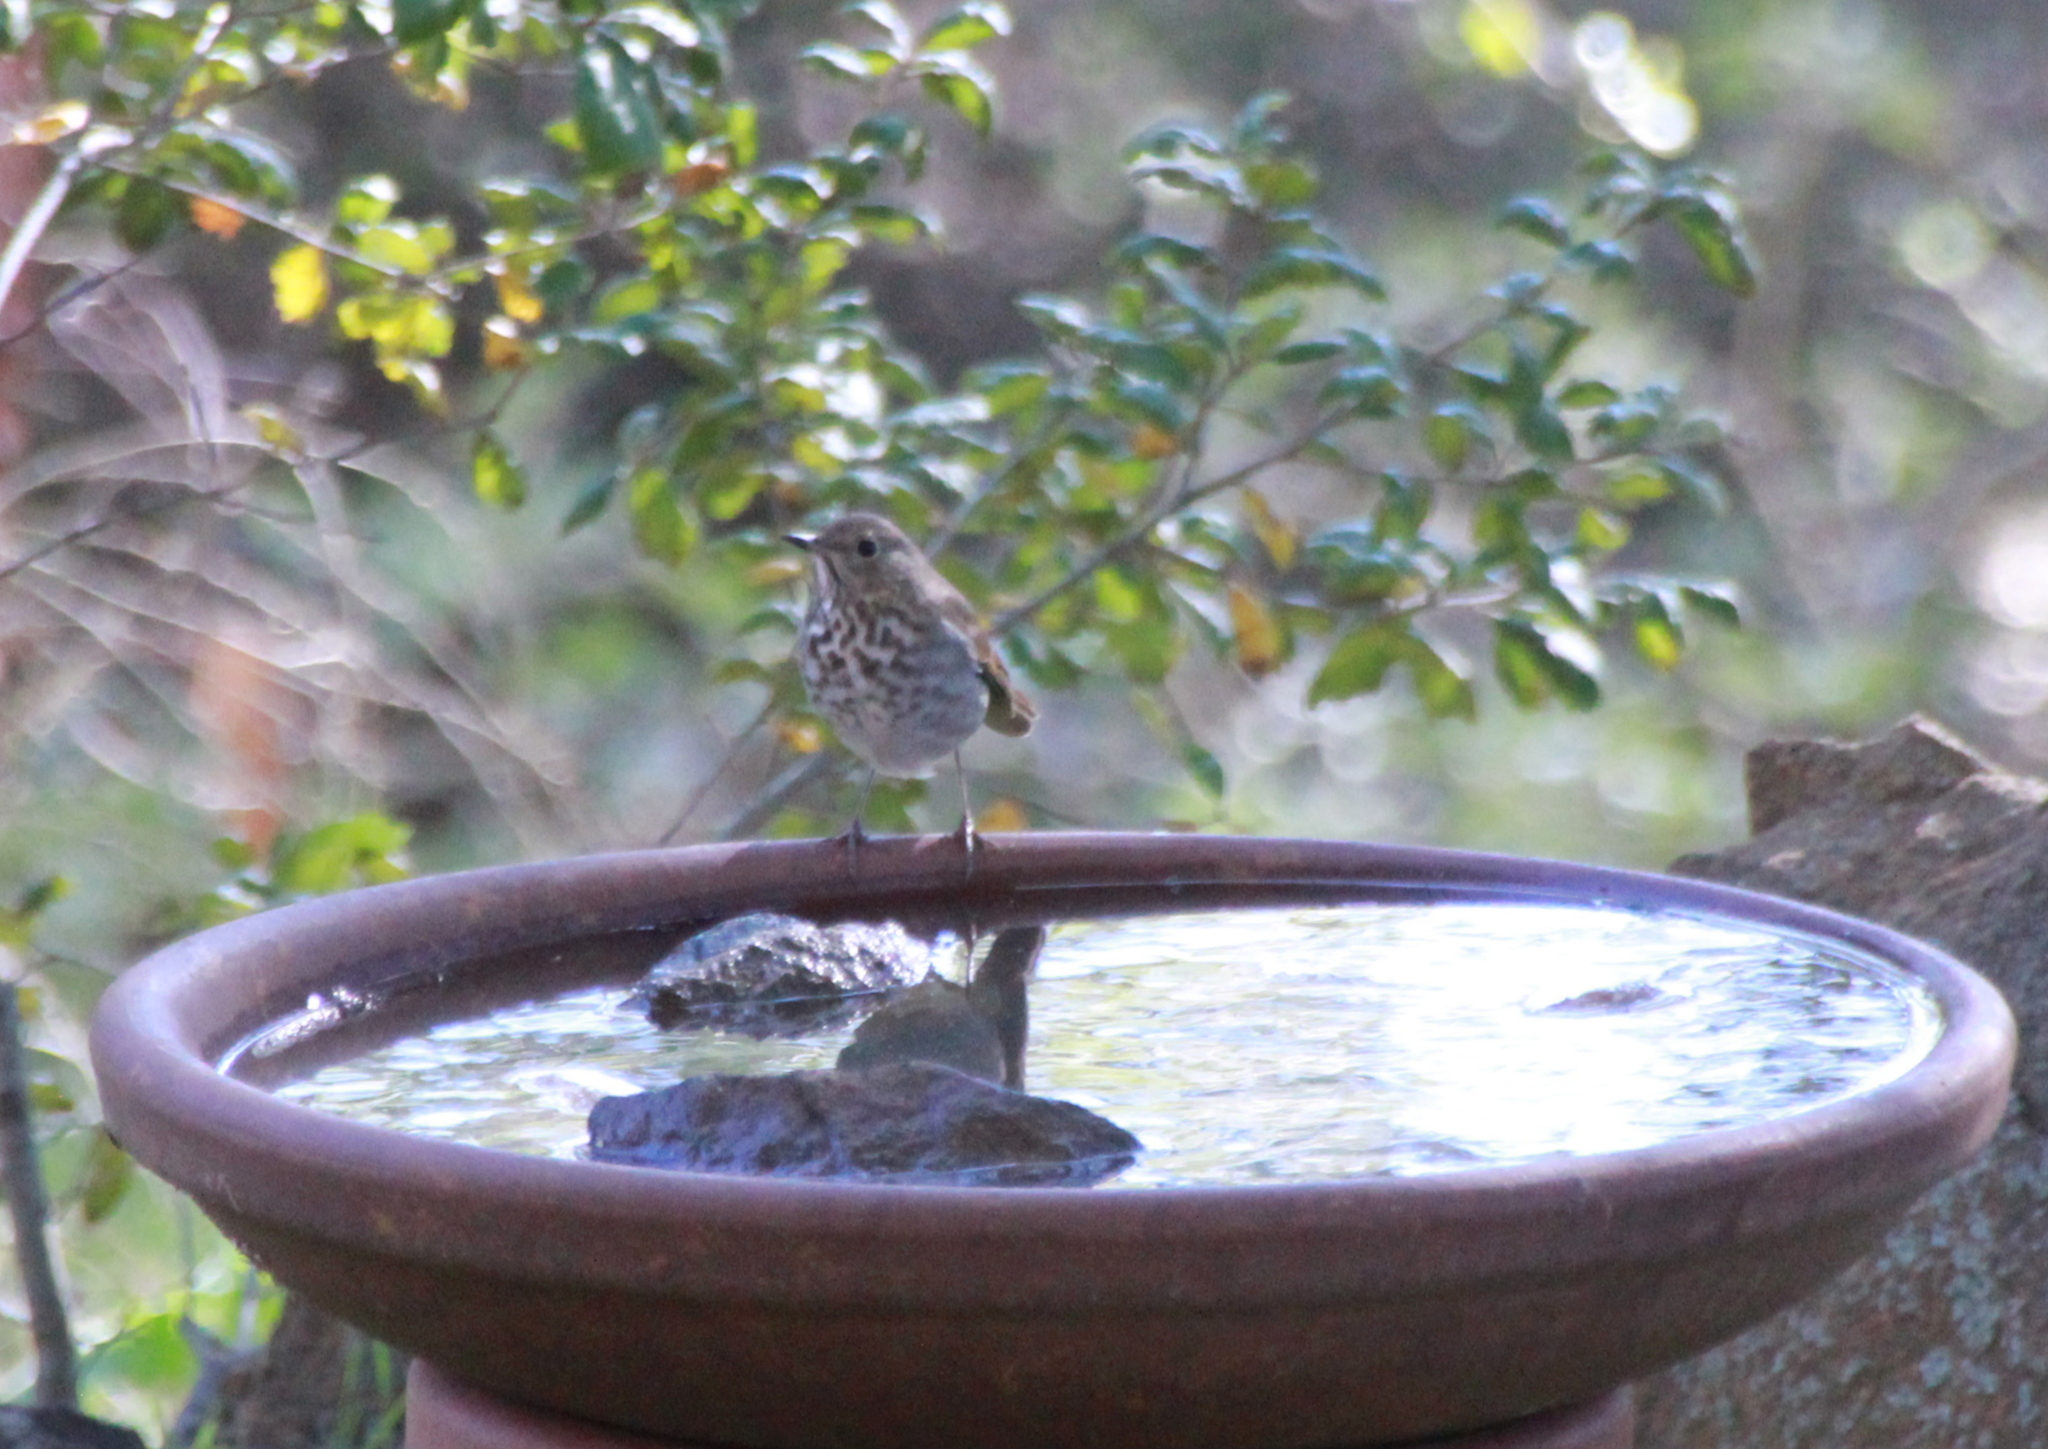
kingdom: Animalia
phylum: Chordata
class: Aves
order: Passeriformes
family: Turdidae
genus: Catharus
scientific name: Catharus guttatus
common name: Hermit thrush
